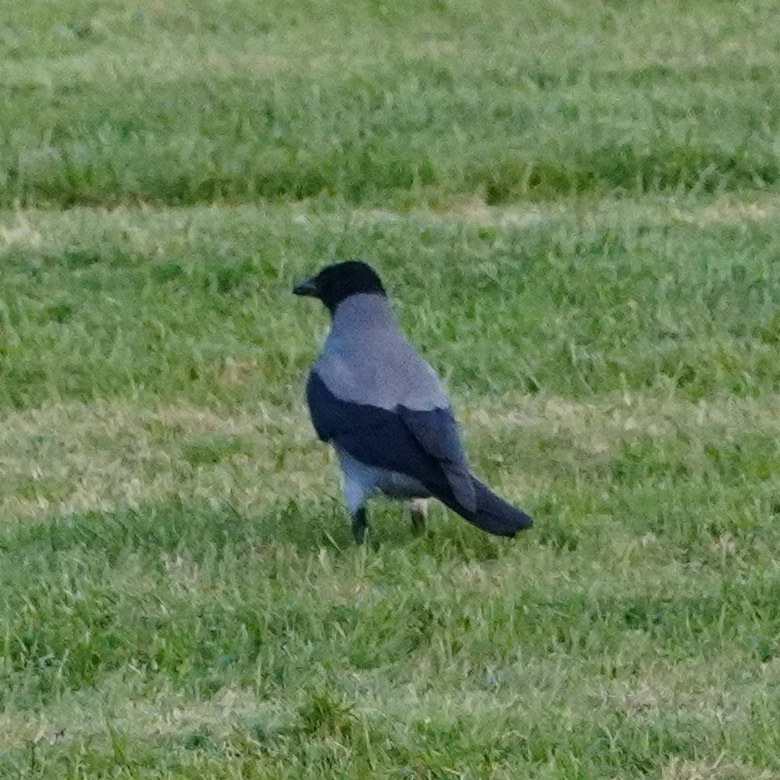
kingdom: Animalia
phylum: Chordata
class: Aves
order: Passeriformes
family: Corvidae
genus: Corvus
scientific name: Corvus cornix
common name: Hooded crow
